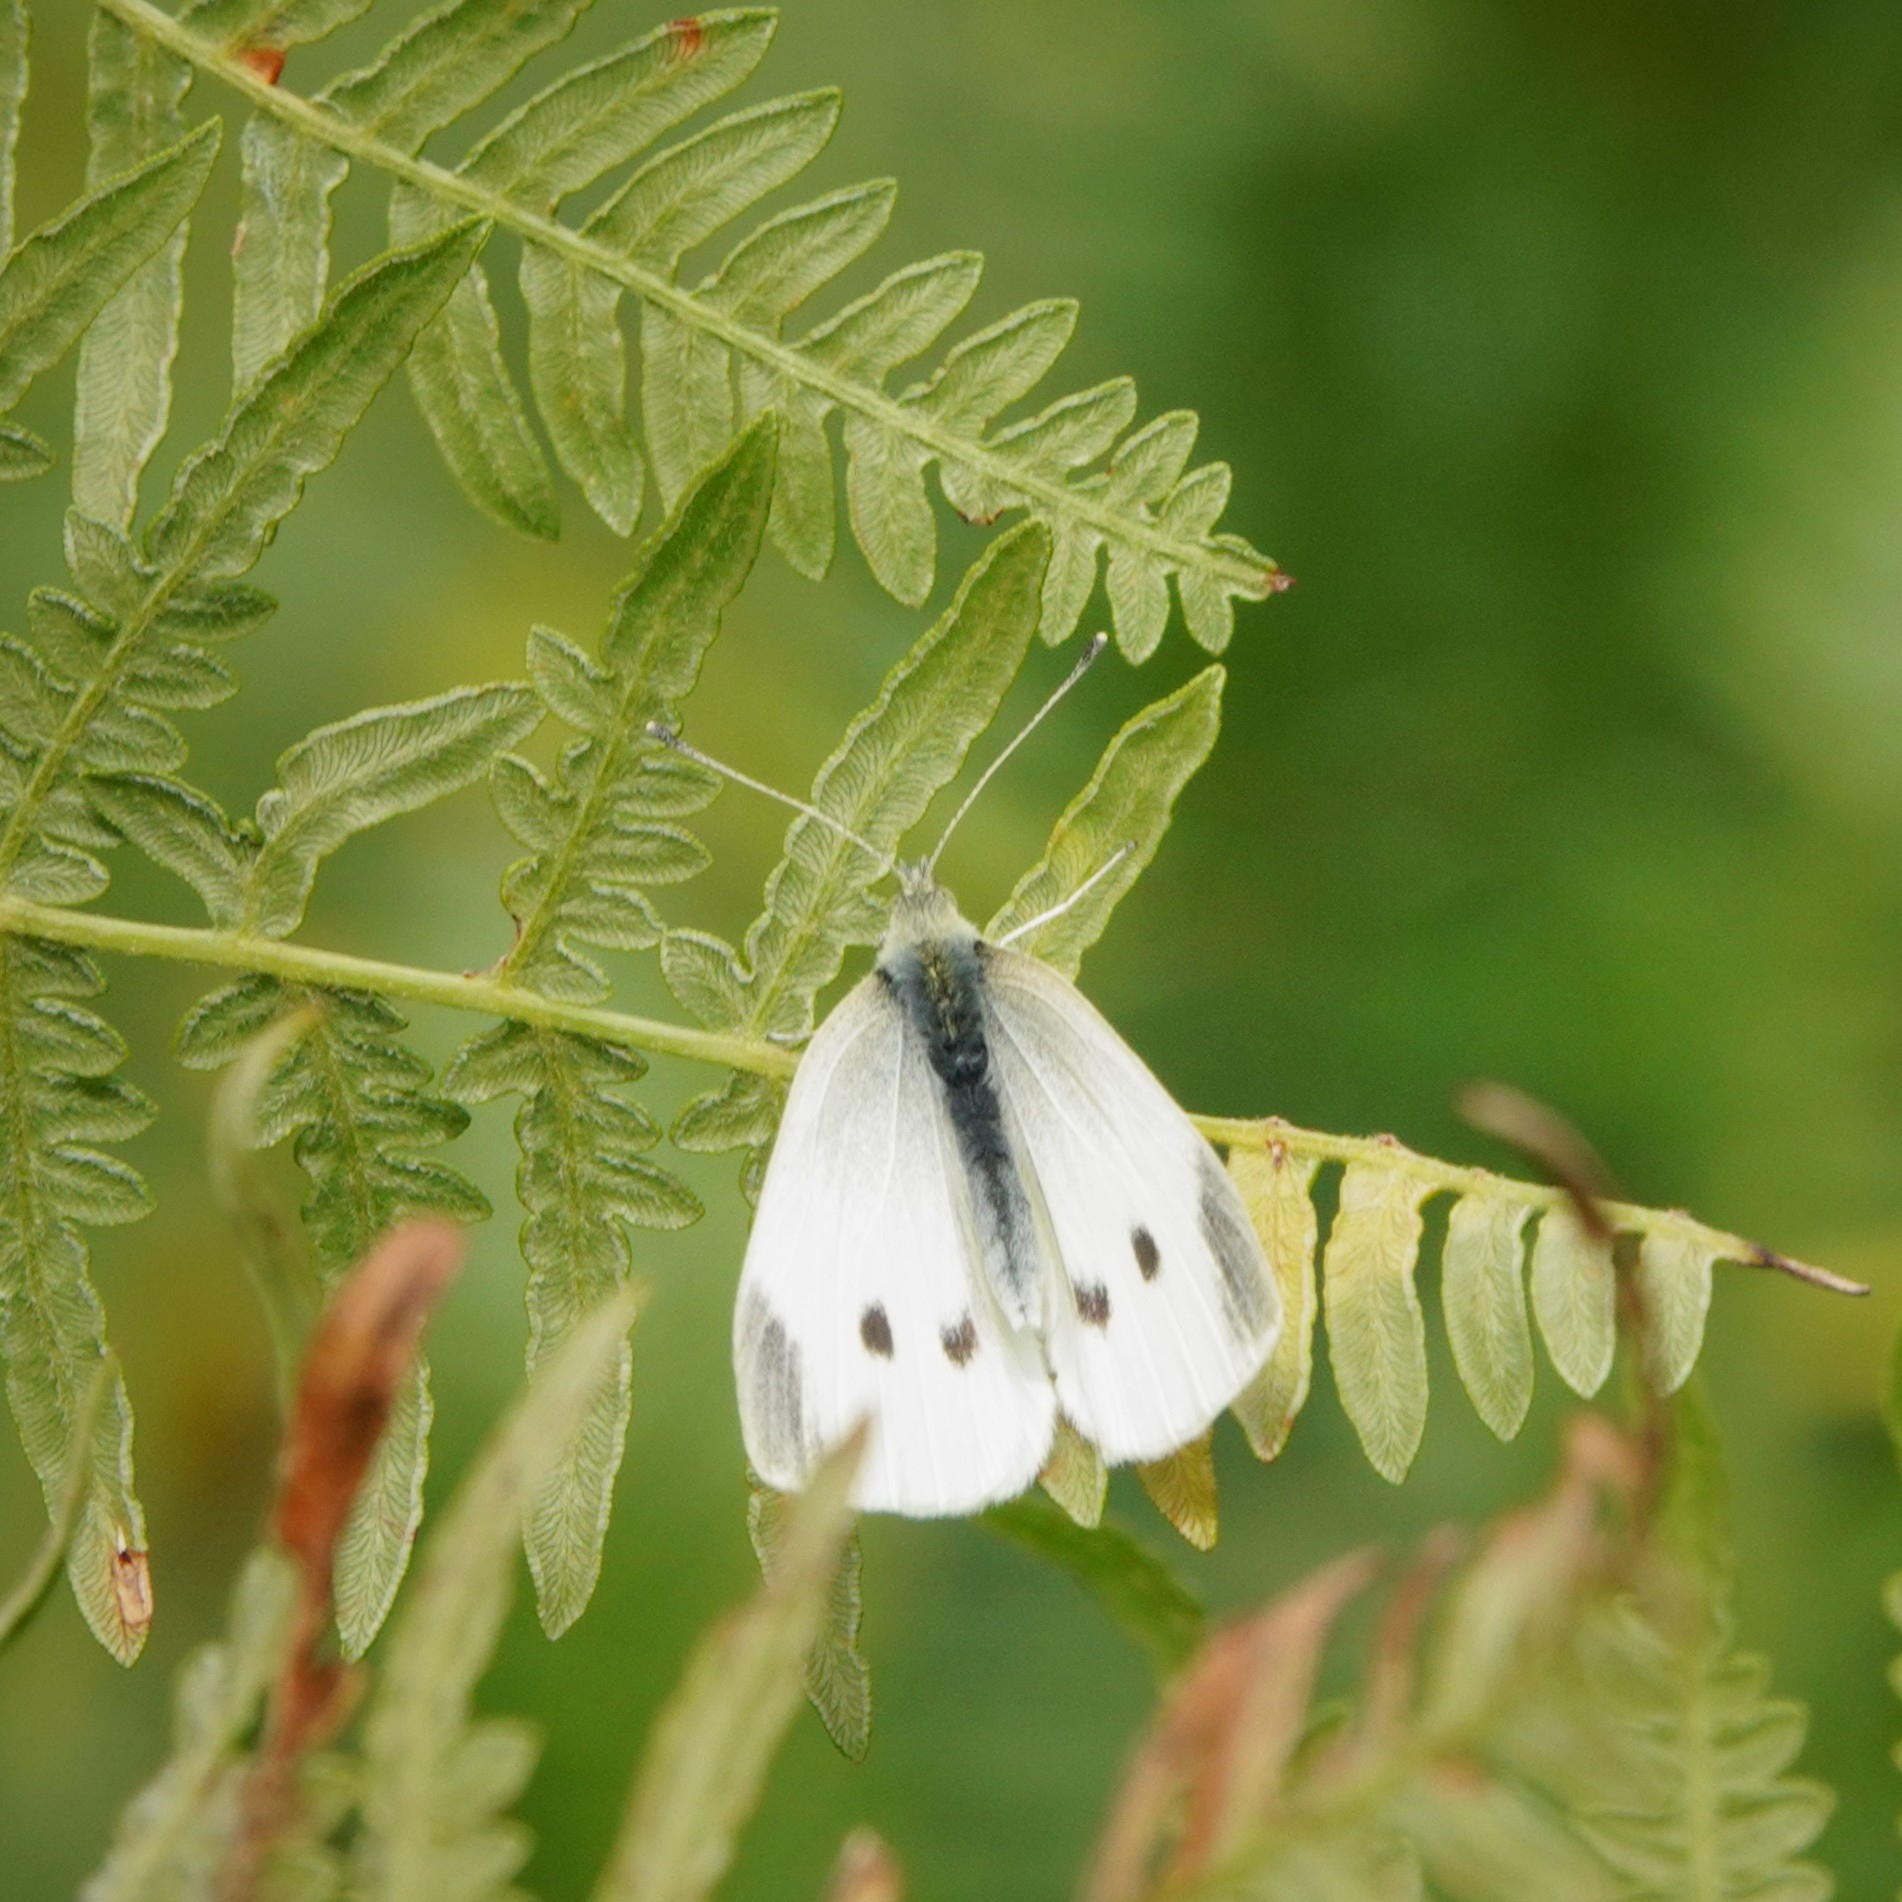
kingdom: Animalia
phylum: Arthropoda
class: Insecta
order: Lepidoptera
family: Pieridae
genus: Pieris
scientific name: Pieris rapae
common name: Small white
